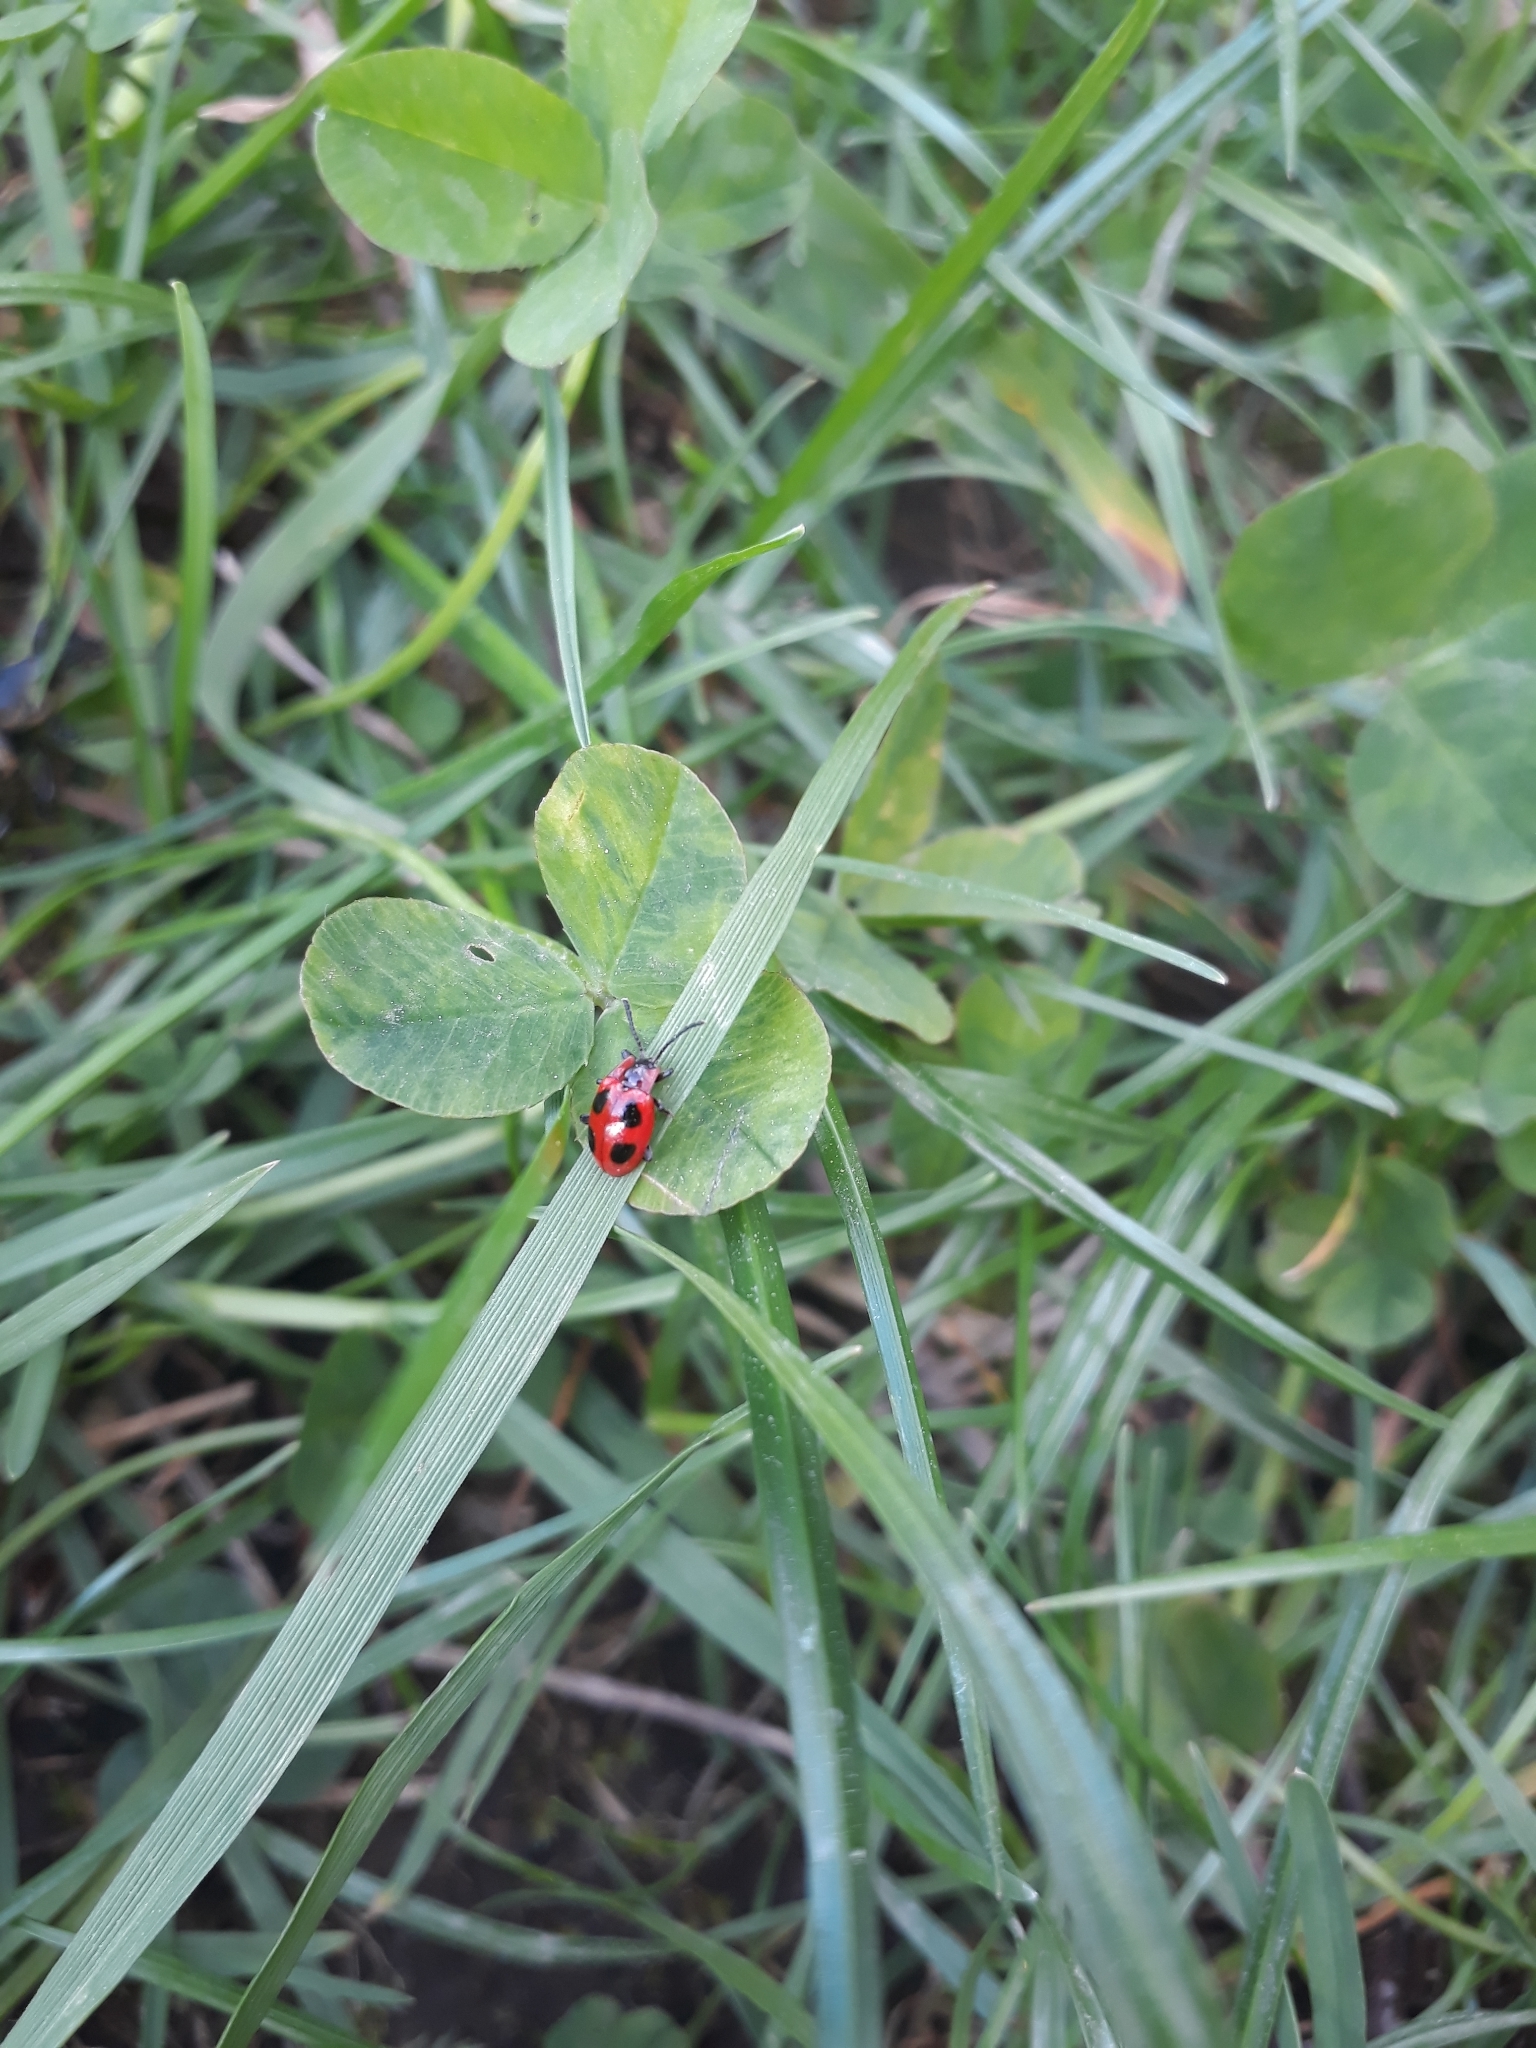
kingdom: Animalia
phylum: Arthropoda
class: Insecta
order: Coleoptera
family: Endomychidae
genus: Endomychus
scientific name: Endomychus coccineus
